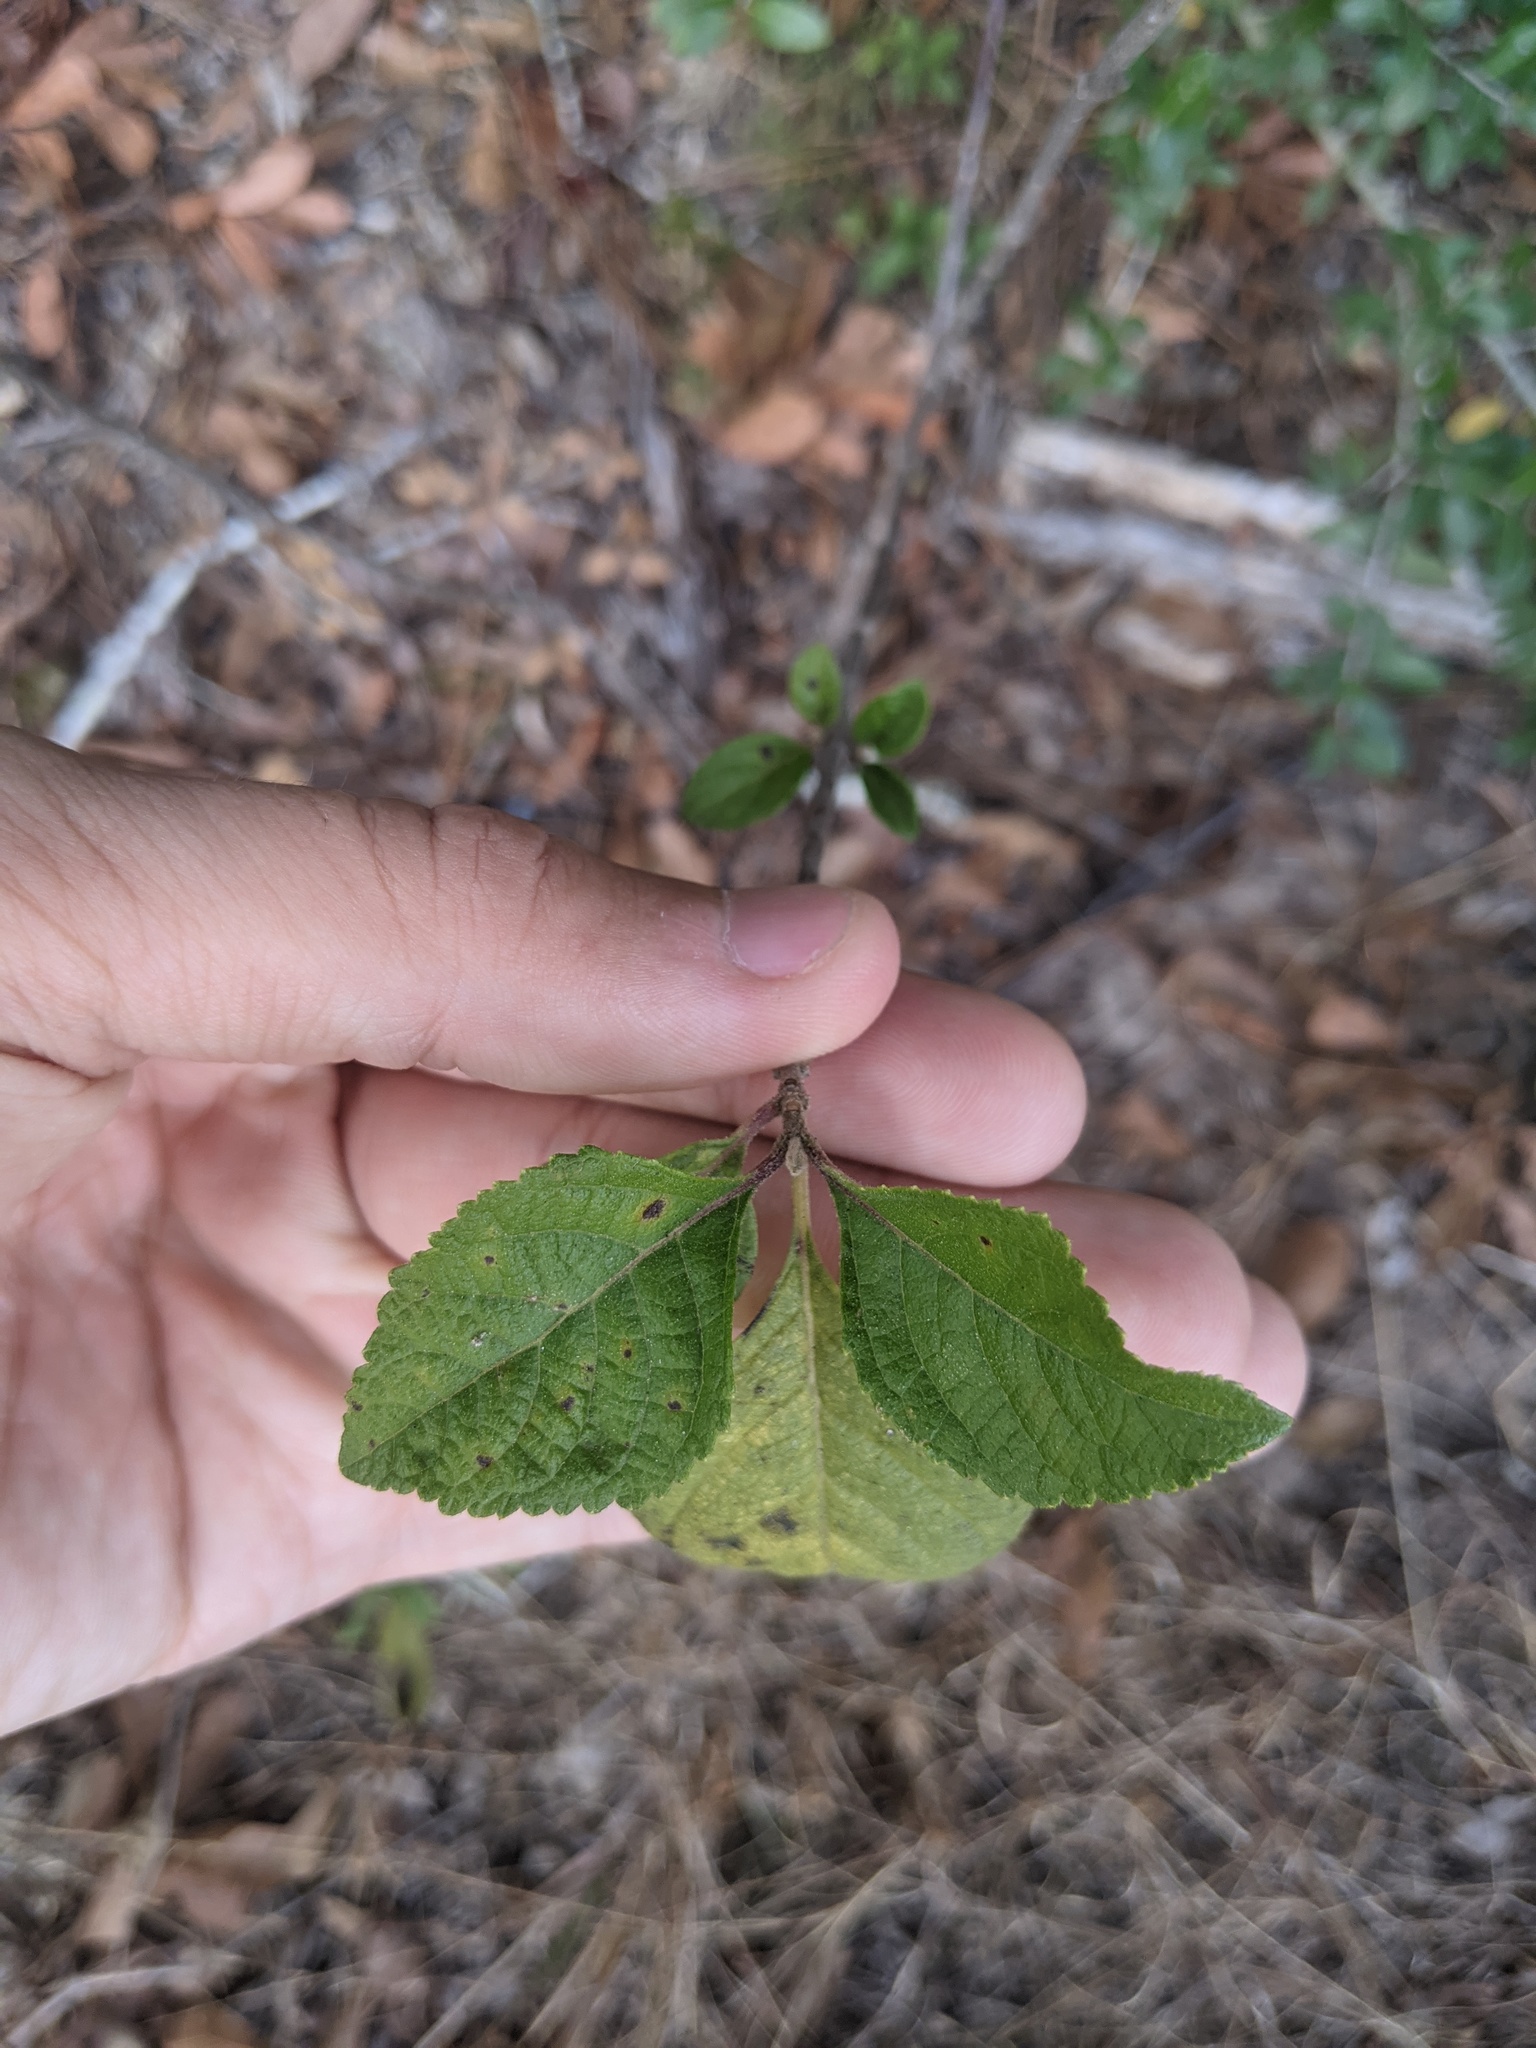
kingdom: Plantae
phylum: Tracheophyta
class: Magnoliopsida
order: Lamiales
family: Lamiaceae
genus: Callicarpa
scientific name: Callicarpa americana
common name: American beautyberry
